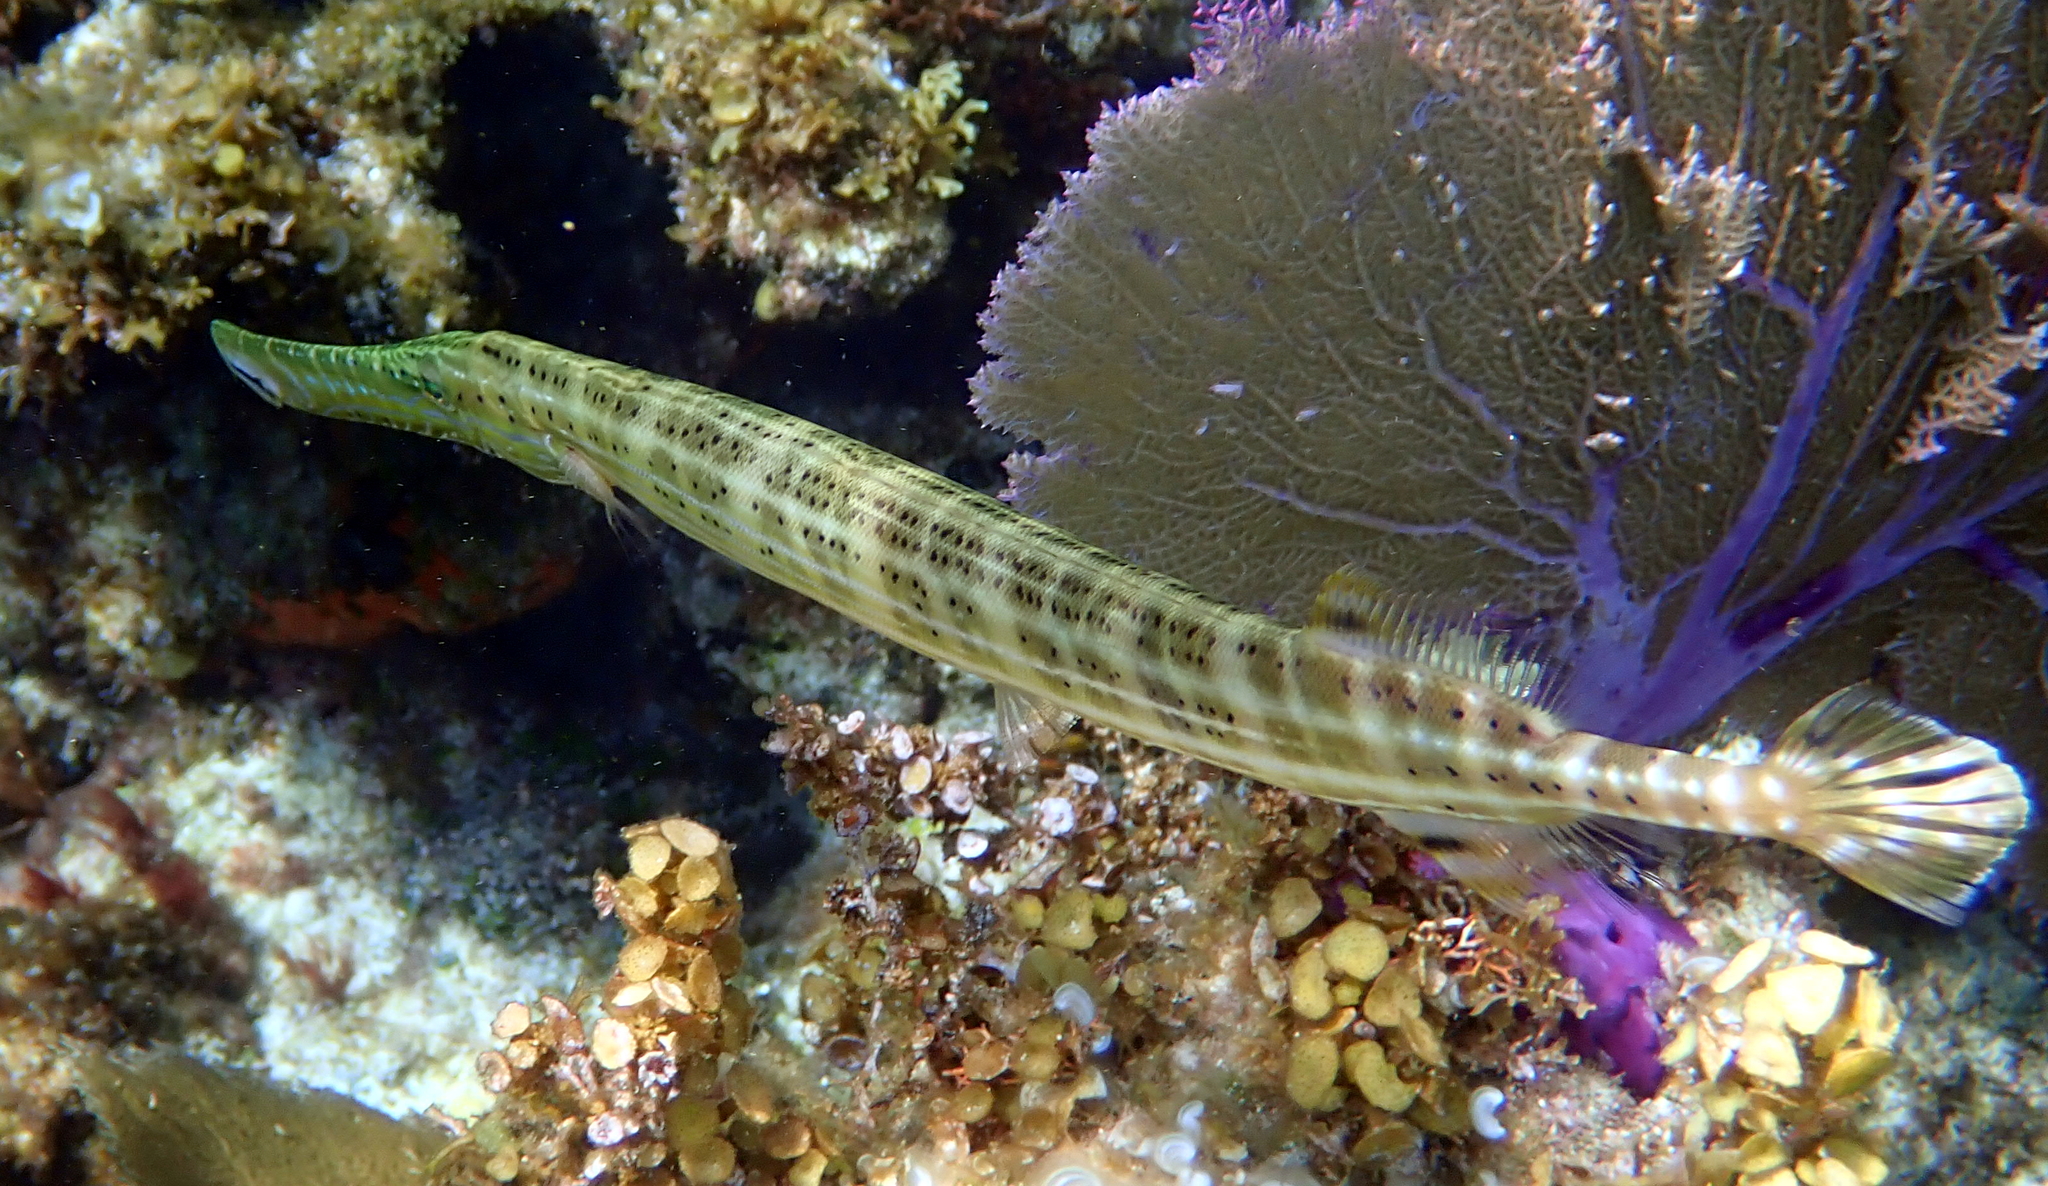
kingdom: Animalia
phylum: Chordata
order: Syngnathiformes
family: Aulostomidae
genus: Aulostomus
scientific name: Aulostomus maculatus
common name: West atlantic trumpetfish
